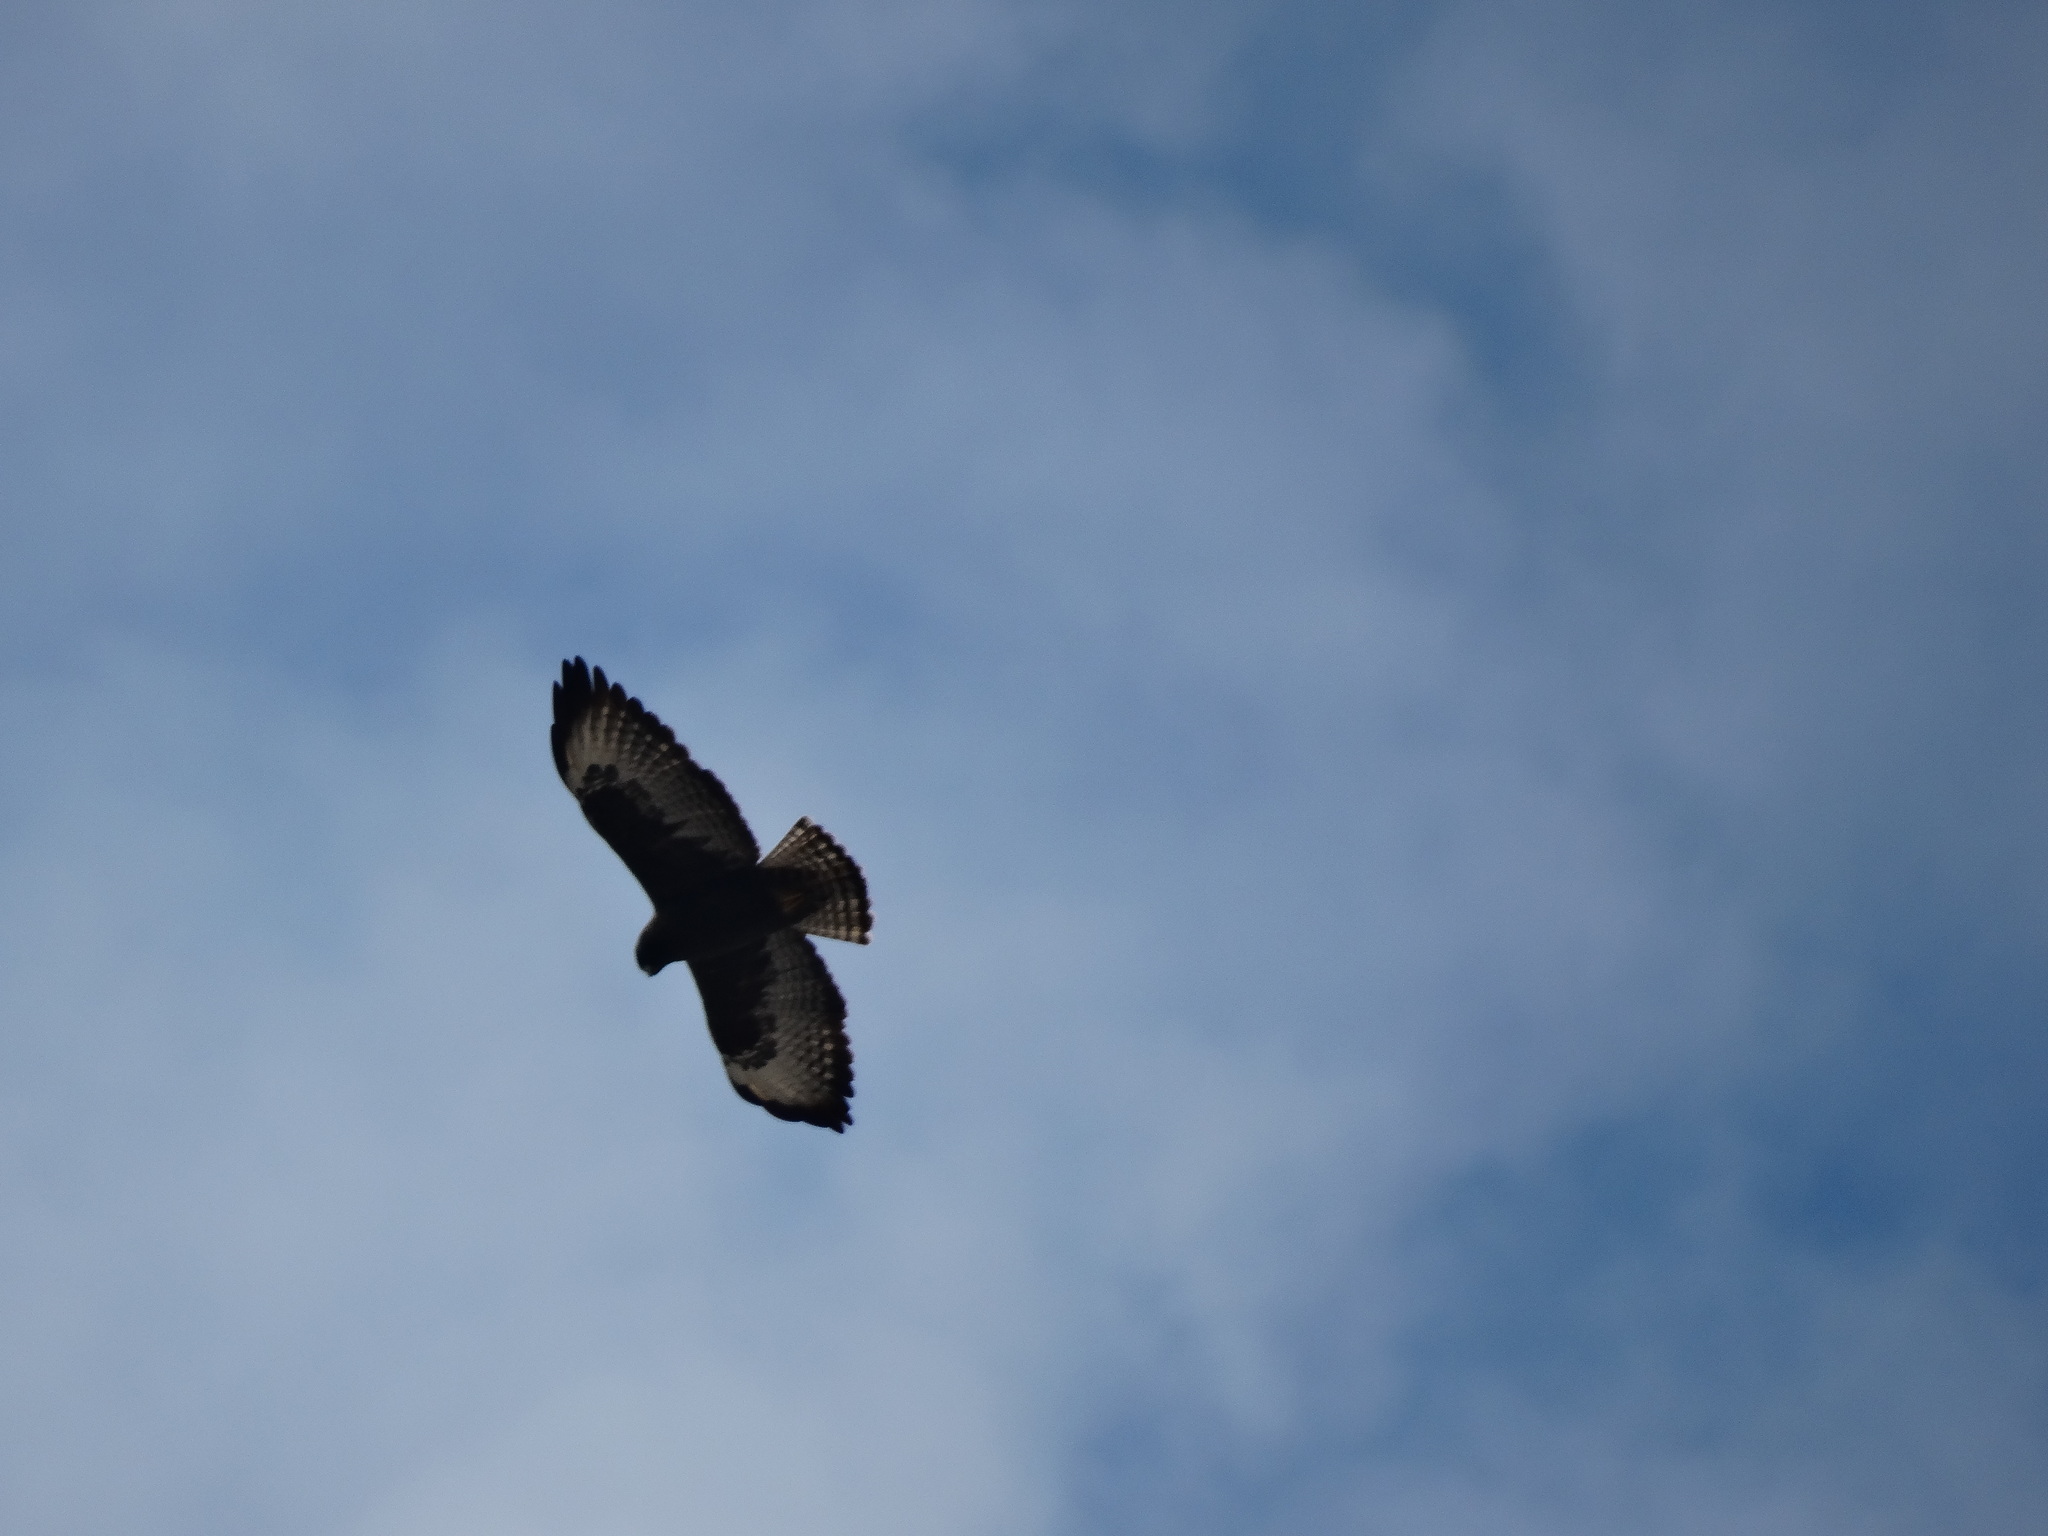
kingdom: Animalia
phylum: Chordata
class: Aves
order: Accipitriformes
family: Accipitridae
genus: Buteo
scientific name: Buteo brachyurus
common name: Short-tailed hawk
